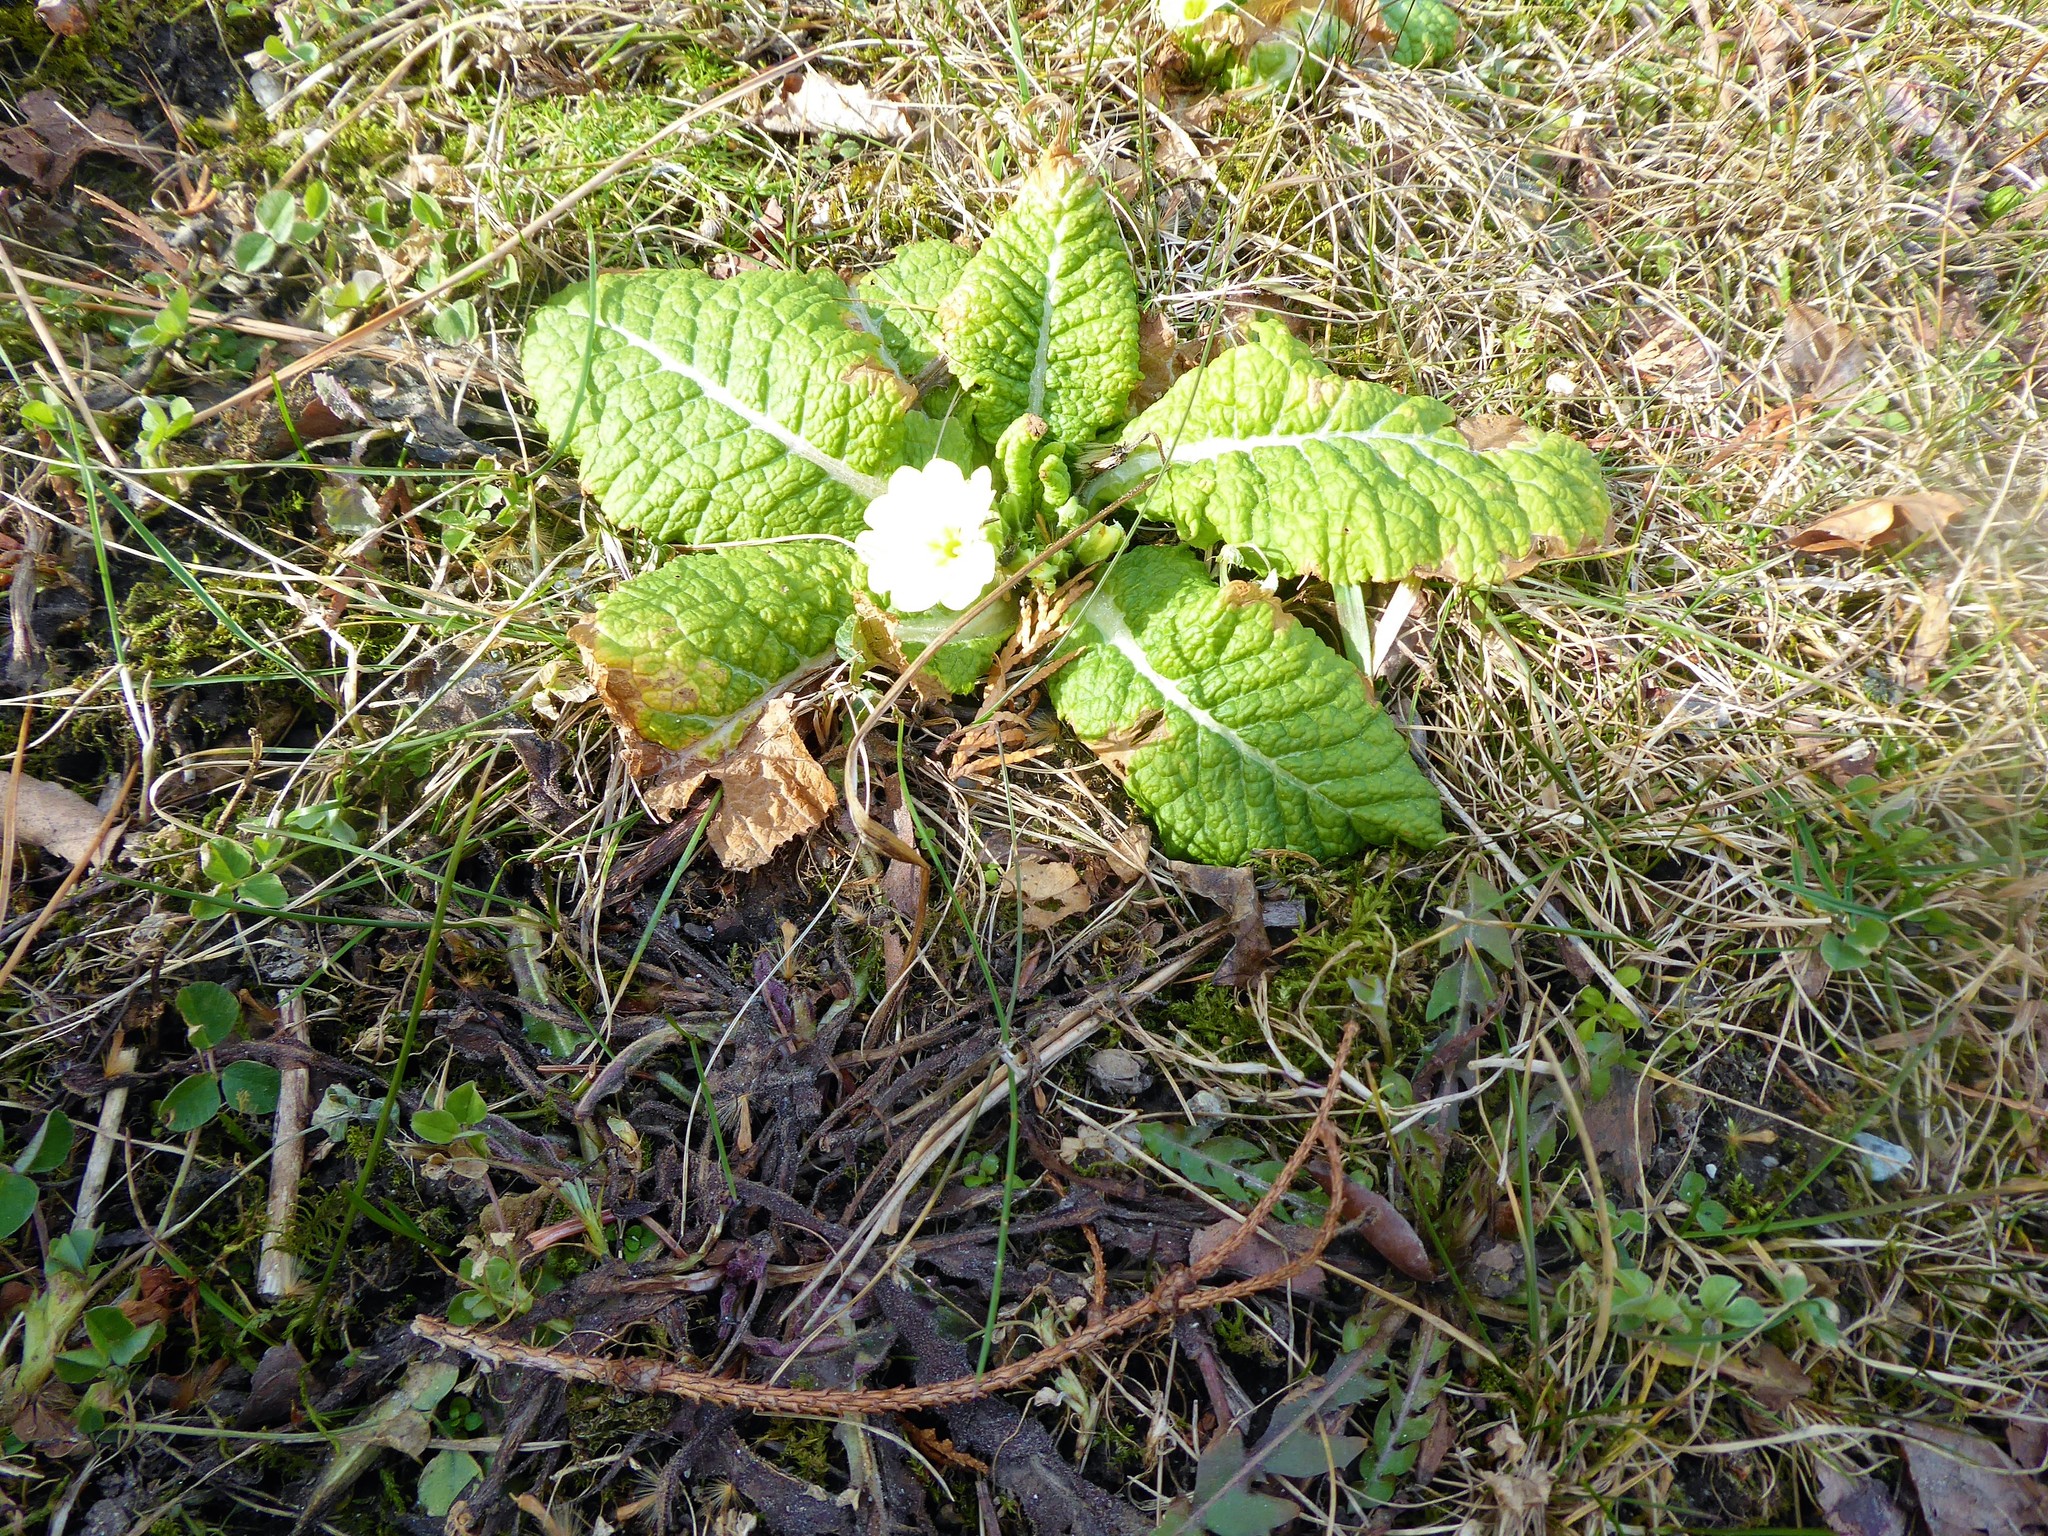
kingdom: Plantae
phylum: Tracheophyta
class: Magnoliopsida
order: Ericales
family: Primulaceae
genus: Primula
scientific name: Primula vulgaris
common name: Primrose
